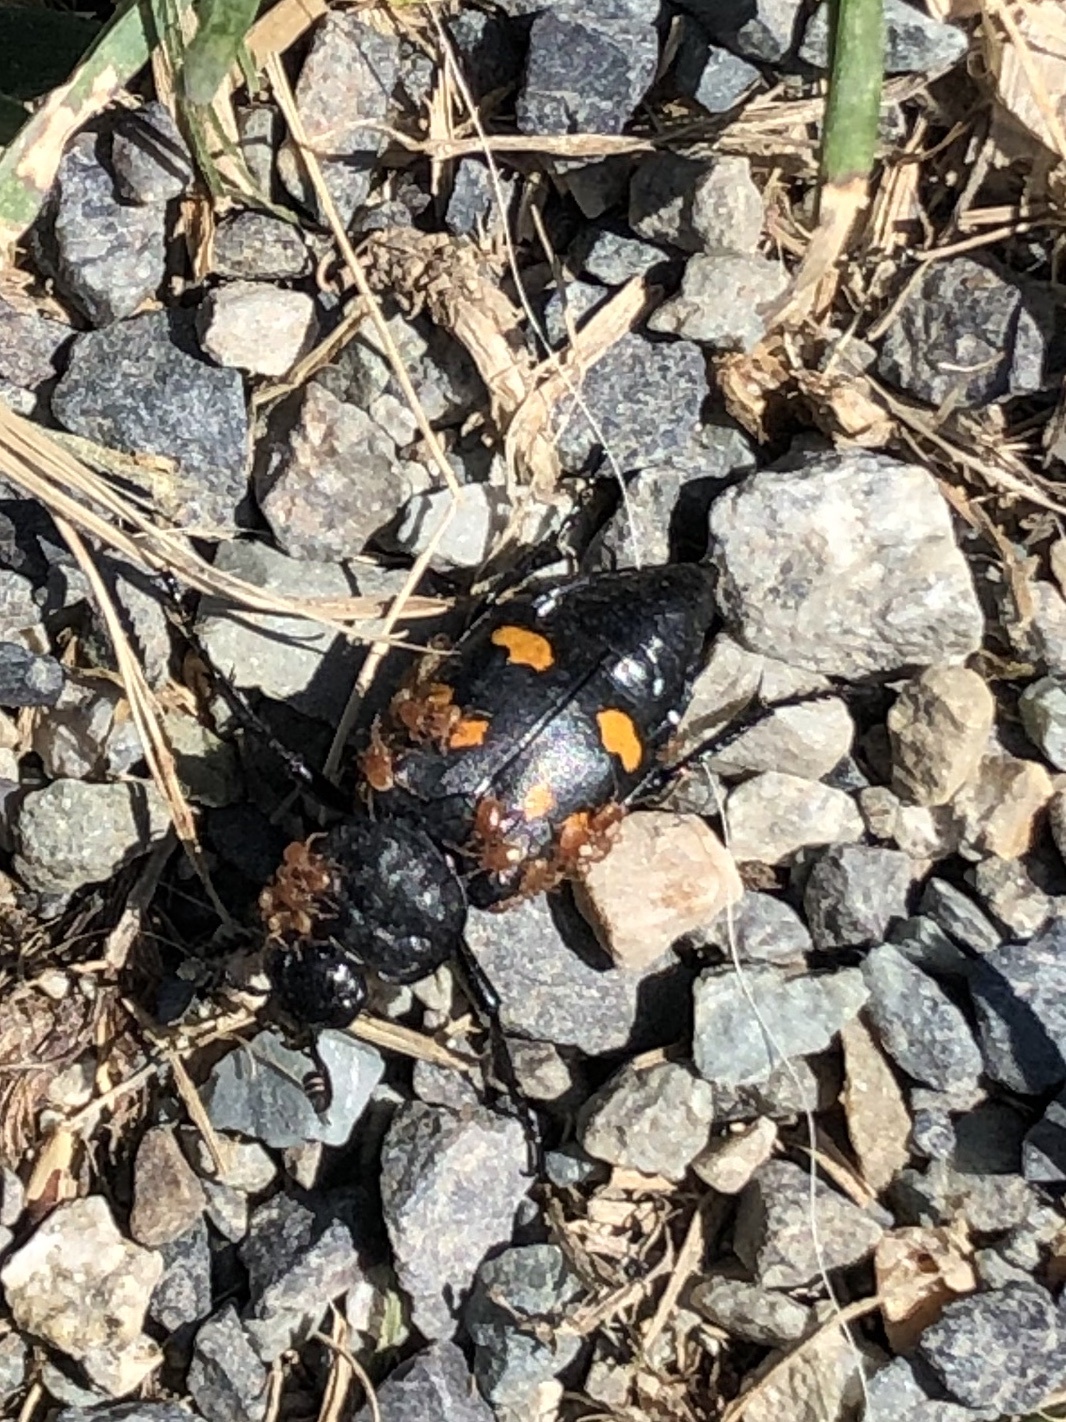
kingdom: Animalia
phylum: Arthropoda
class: Insecta
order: Coleoptera
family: Staphylinidae
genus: Nicrophorus
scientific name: Nicrophorus defodiens
